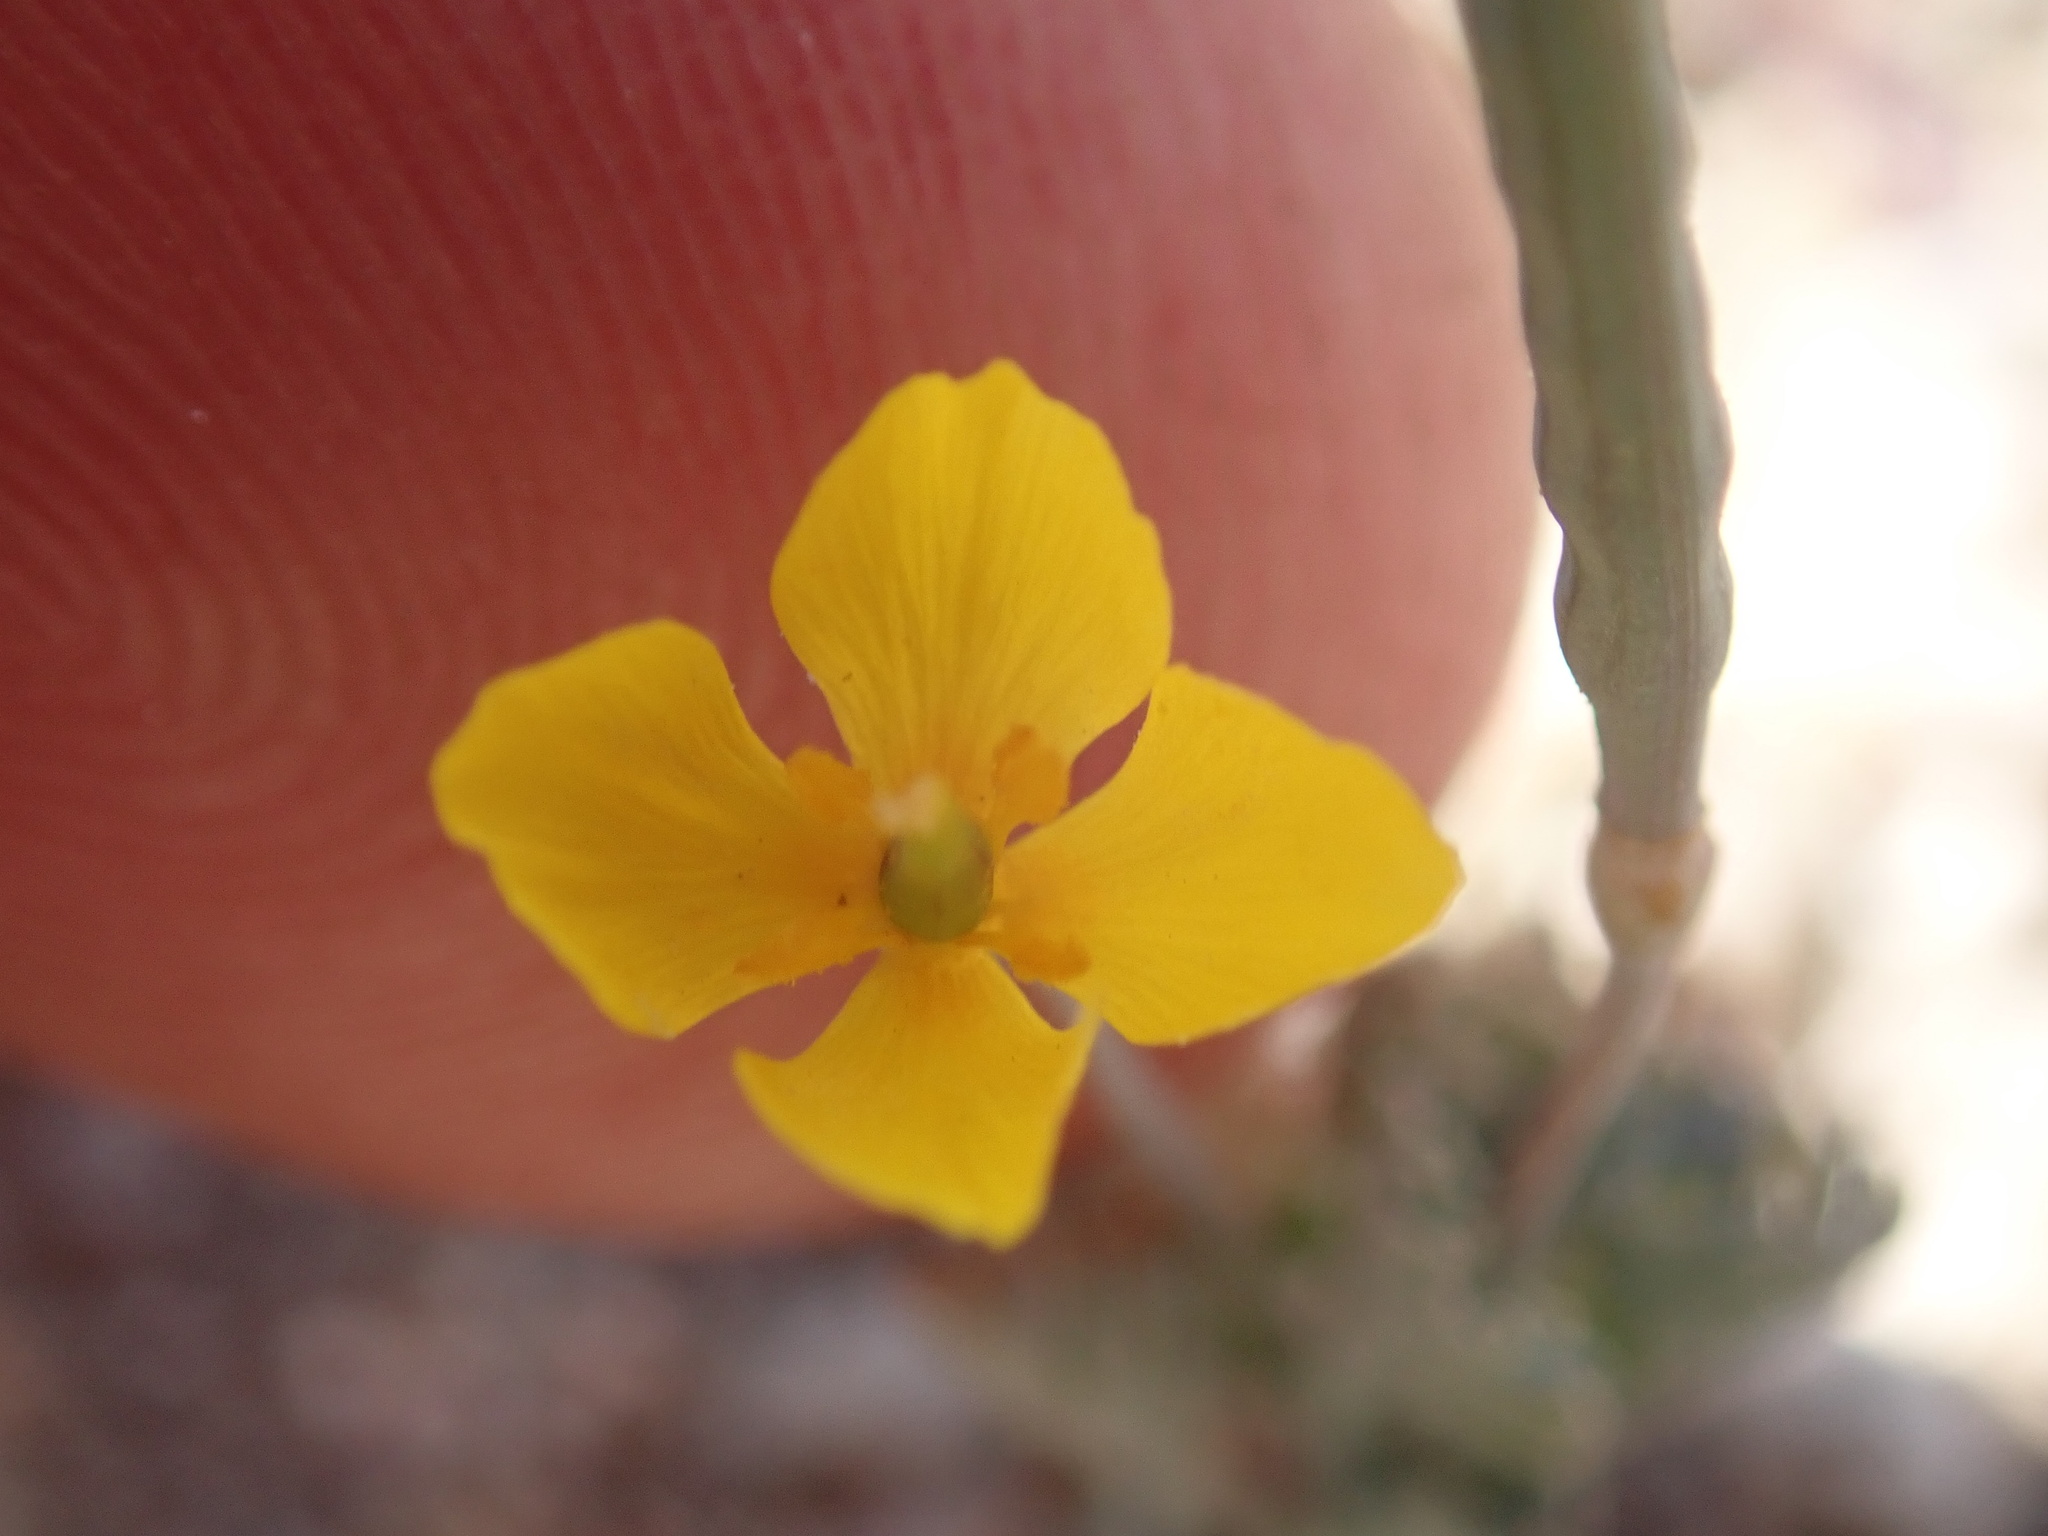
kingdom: Plantae
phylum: Tracheophyta
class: Magnoliopsida
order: Ranunculales
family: Papaveraceae
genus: Eschscholzia
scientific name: Eschscholzia minutiflora
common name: Small-flower california-poppy
